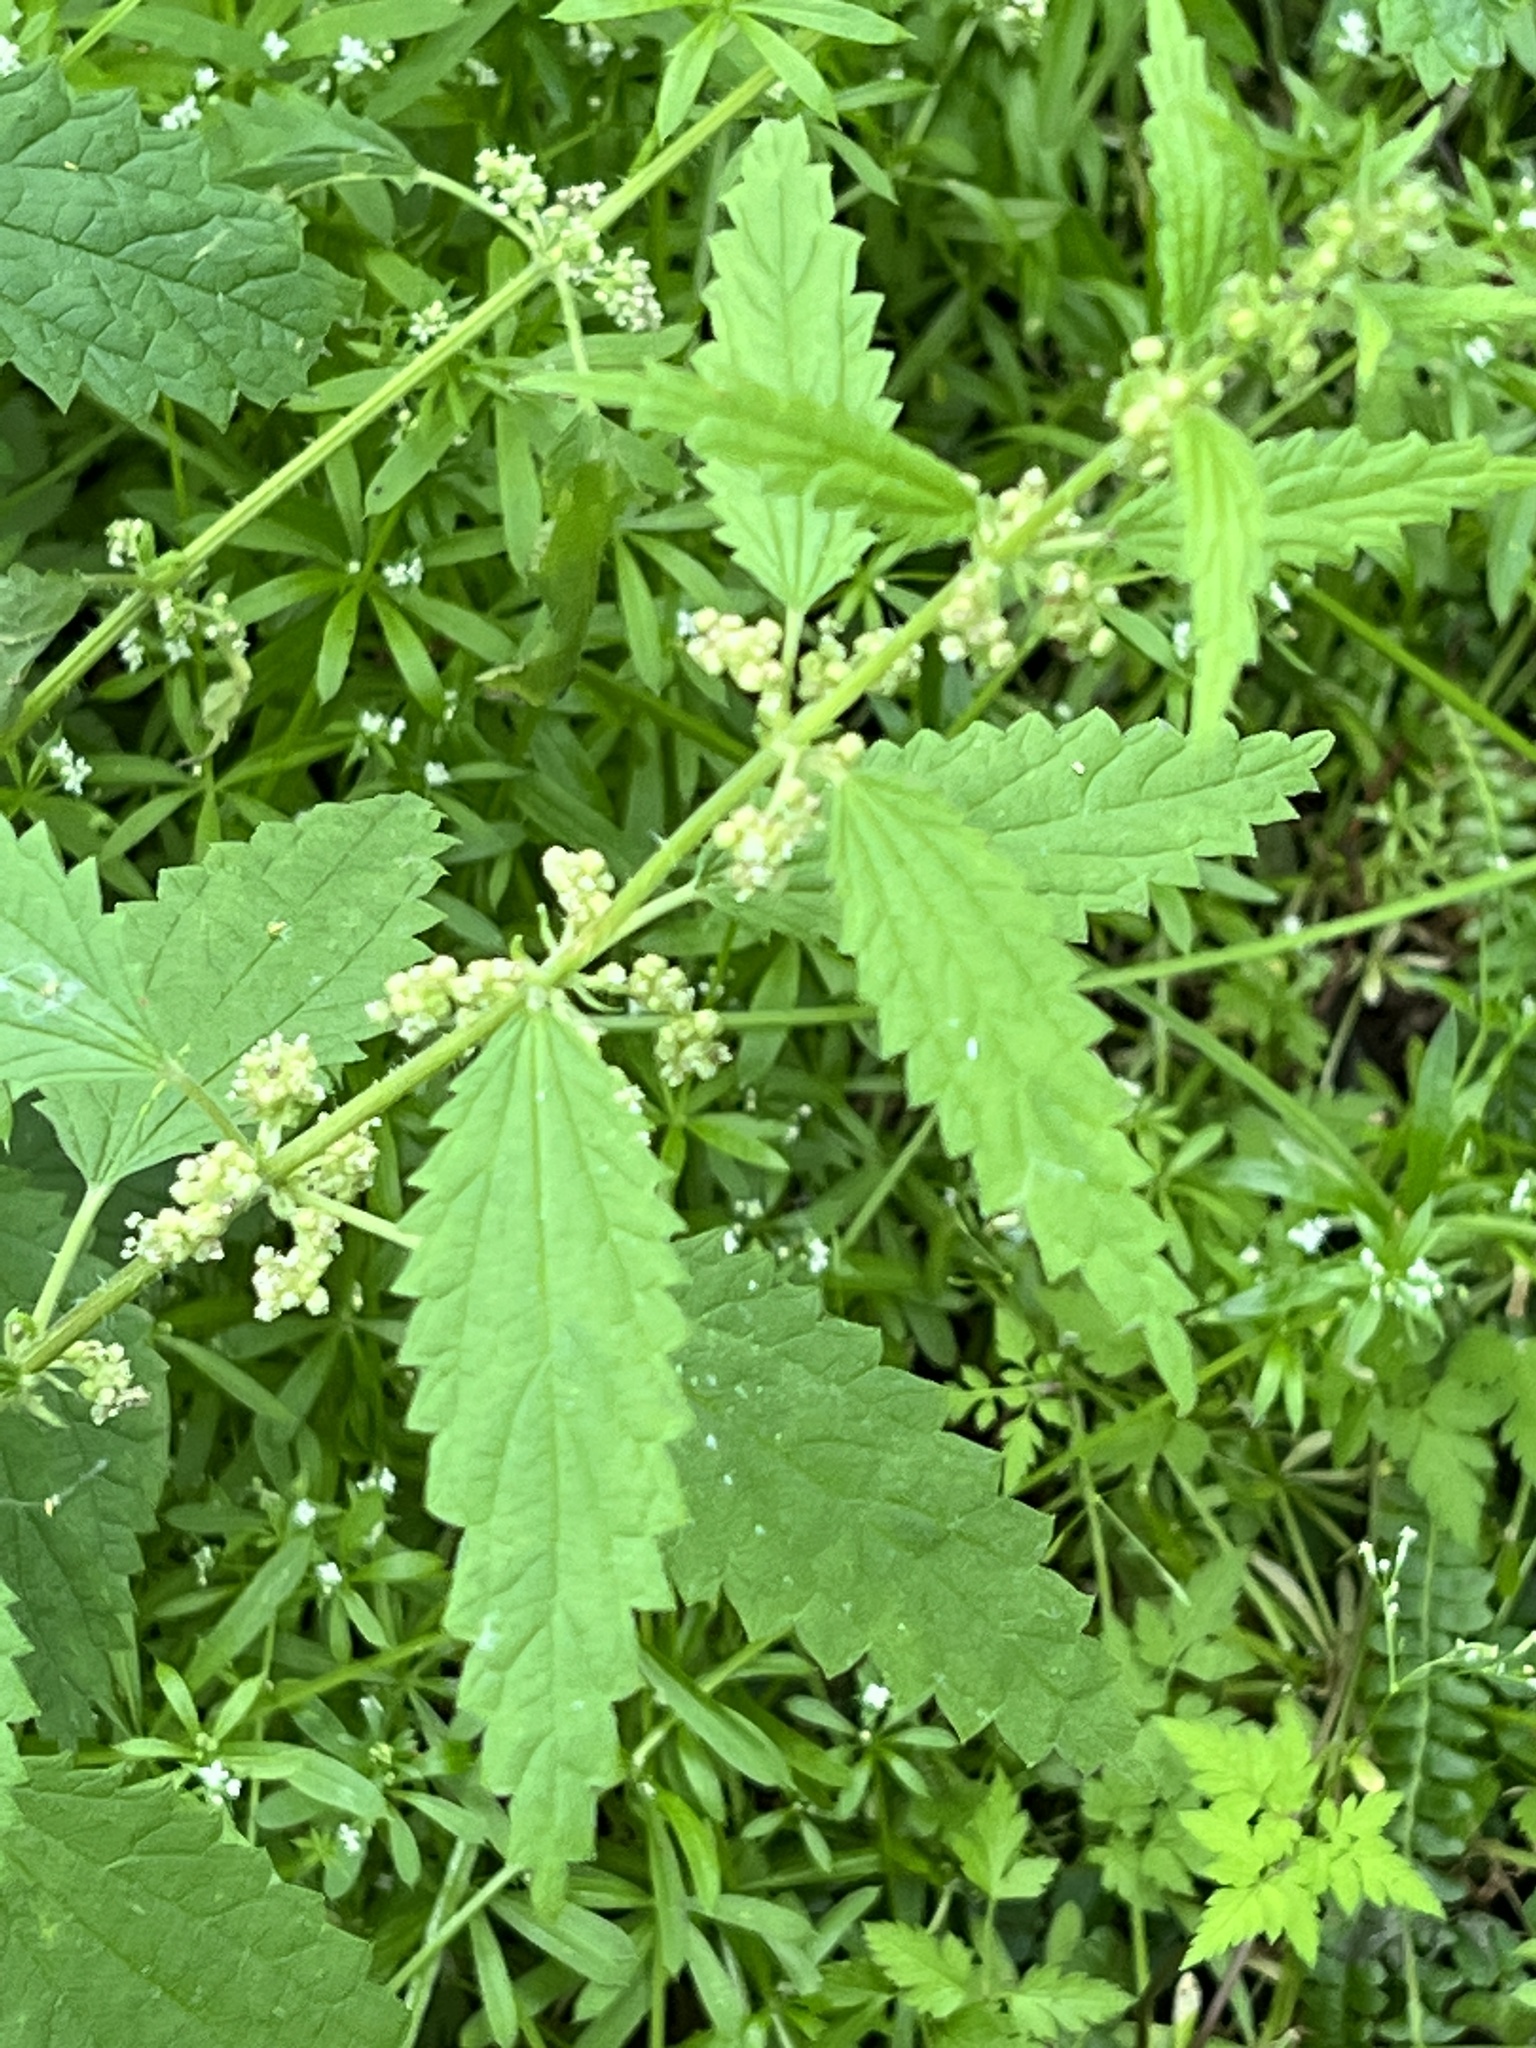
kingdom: Plantae
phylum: Tracheophyta
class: Magnoliopsida
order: Rosales
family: Urticaceae
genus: Urtica
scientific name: Urtica urens
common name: Dwarf nettle
